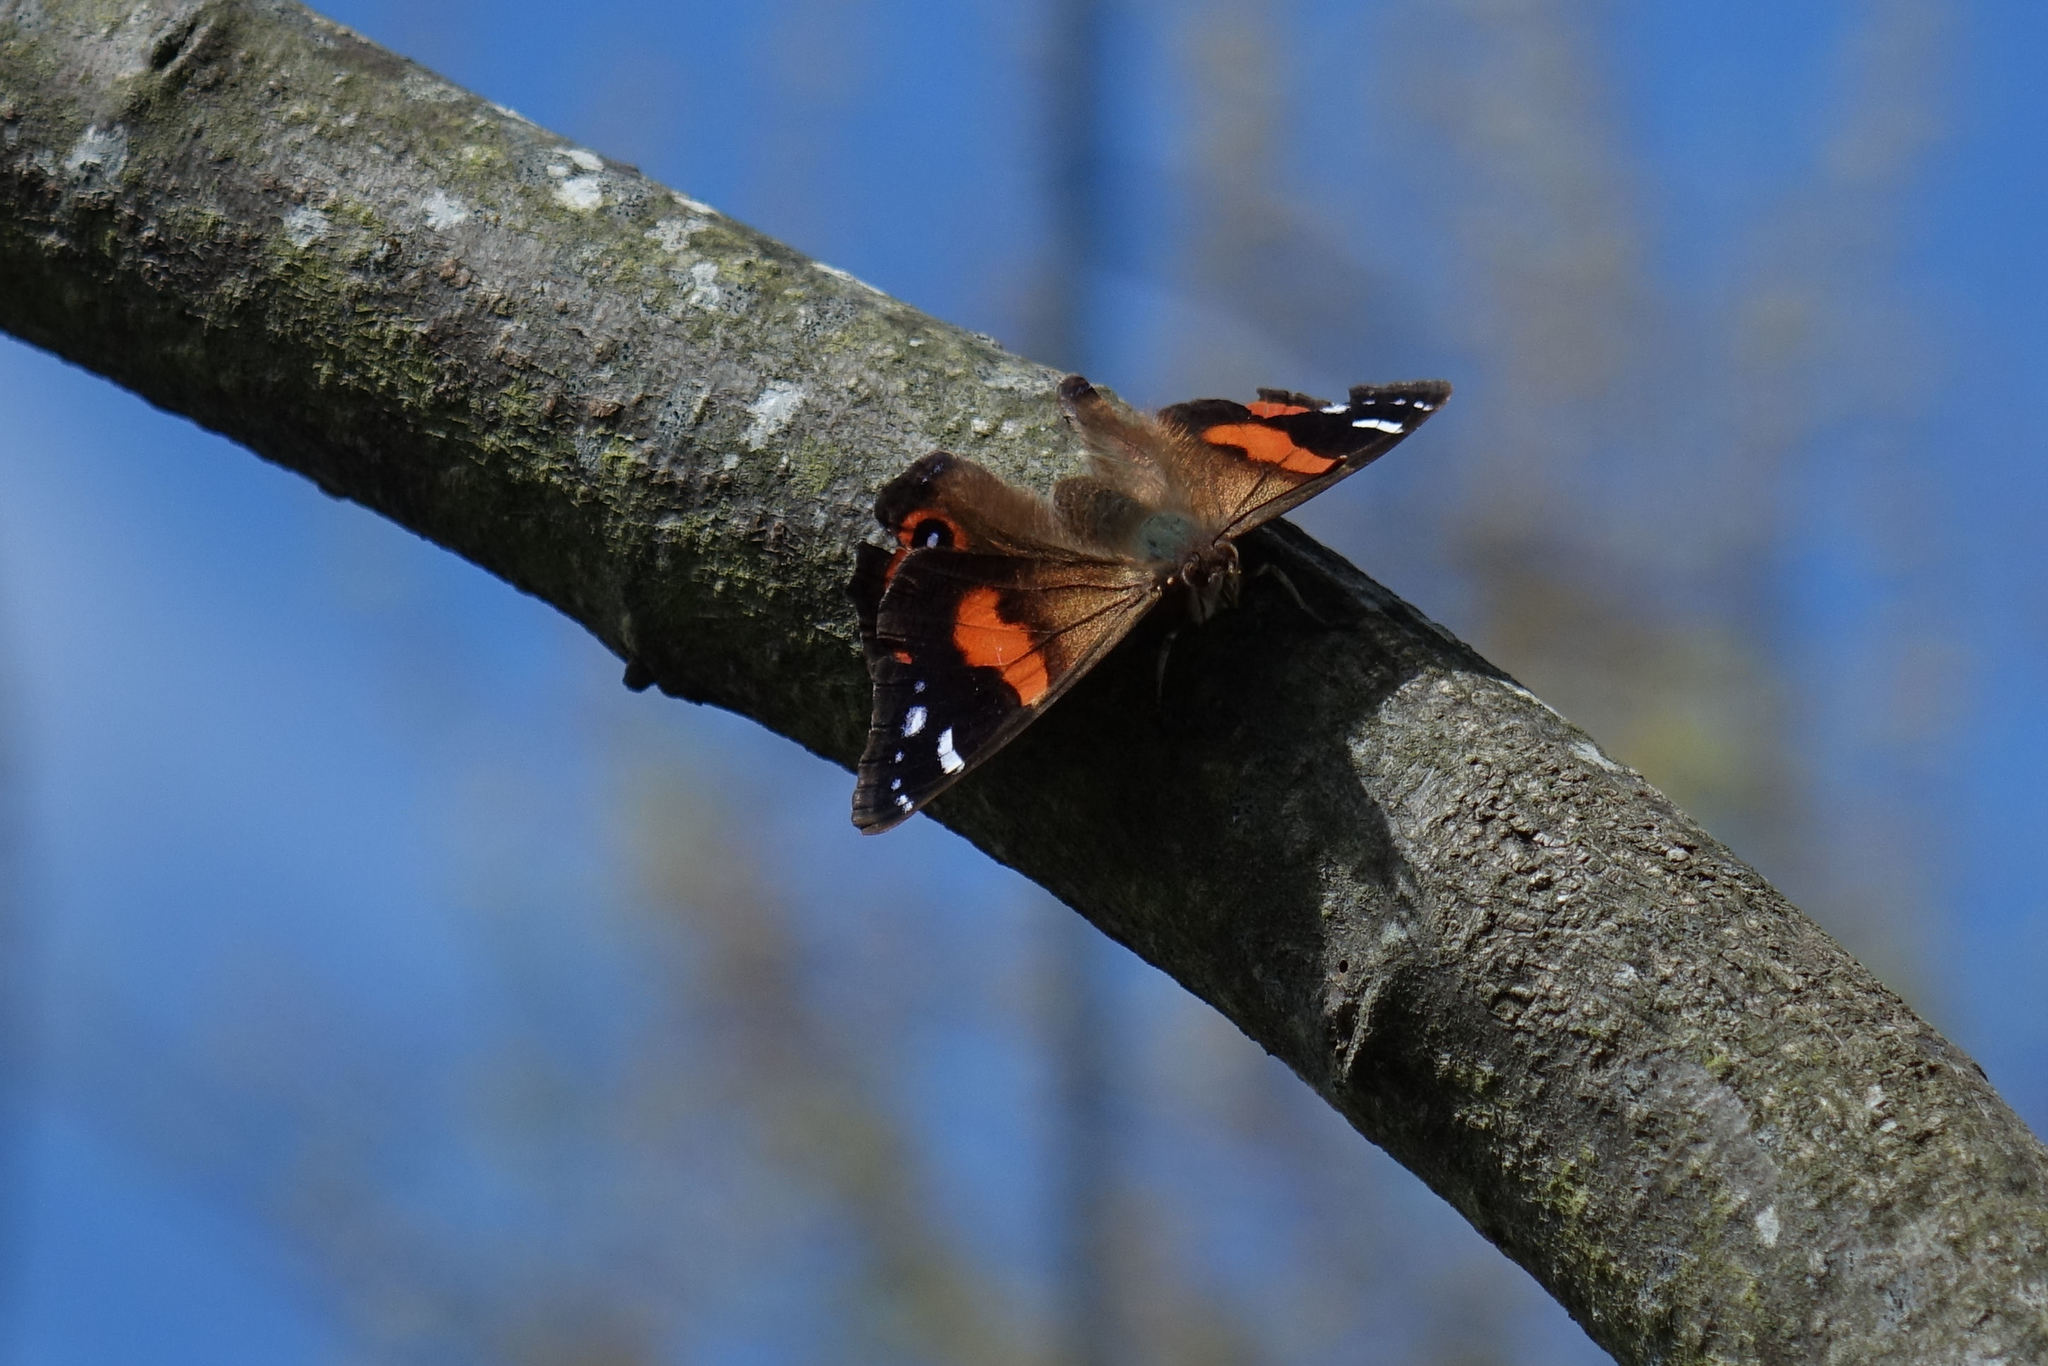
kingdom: Animalia
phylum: Arthropoda
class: Insecta
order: Lepidoptera
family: Nymphalidae
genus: Vanessa
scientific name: Vanessa gonerilla
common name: New zealand red admiral
